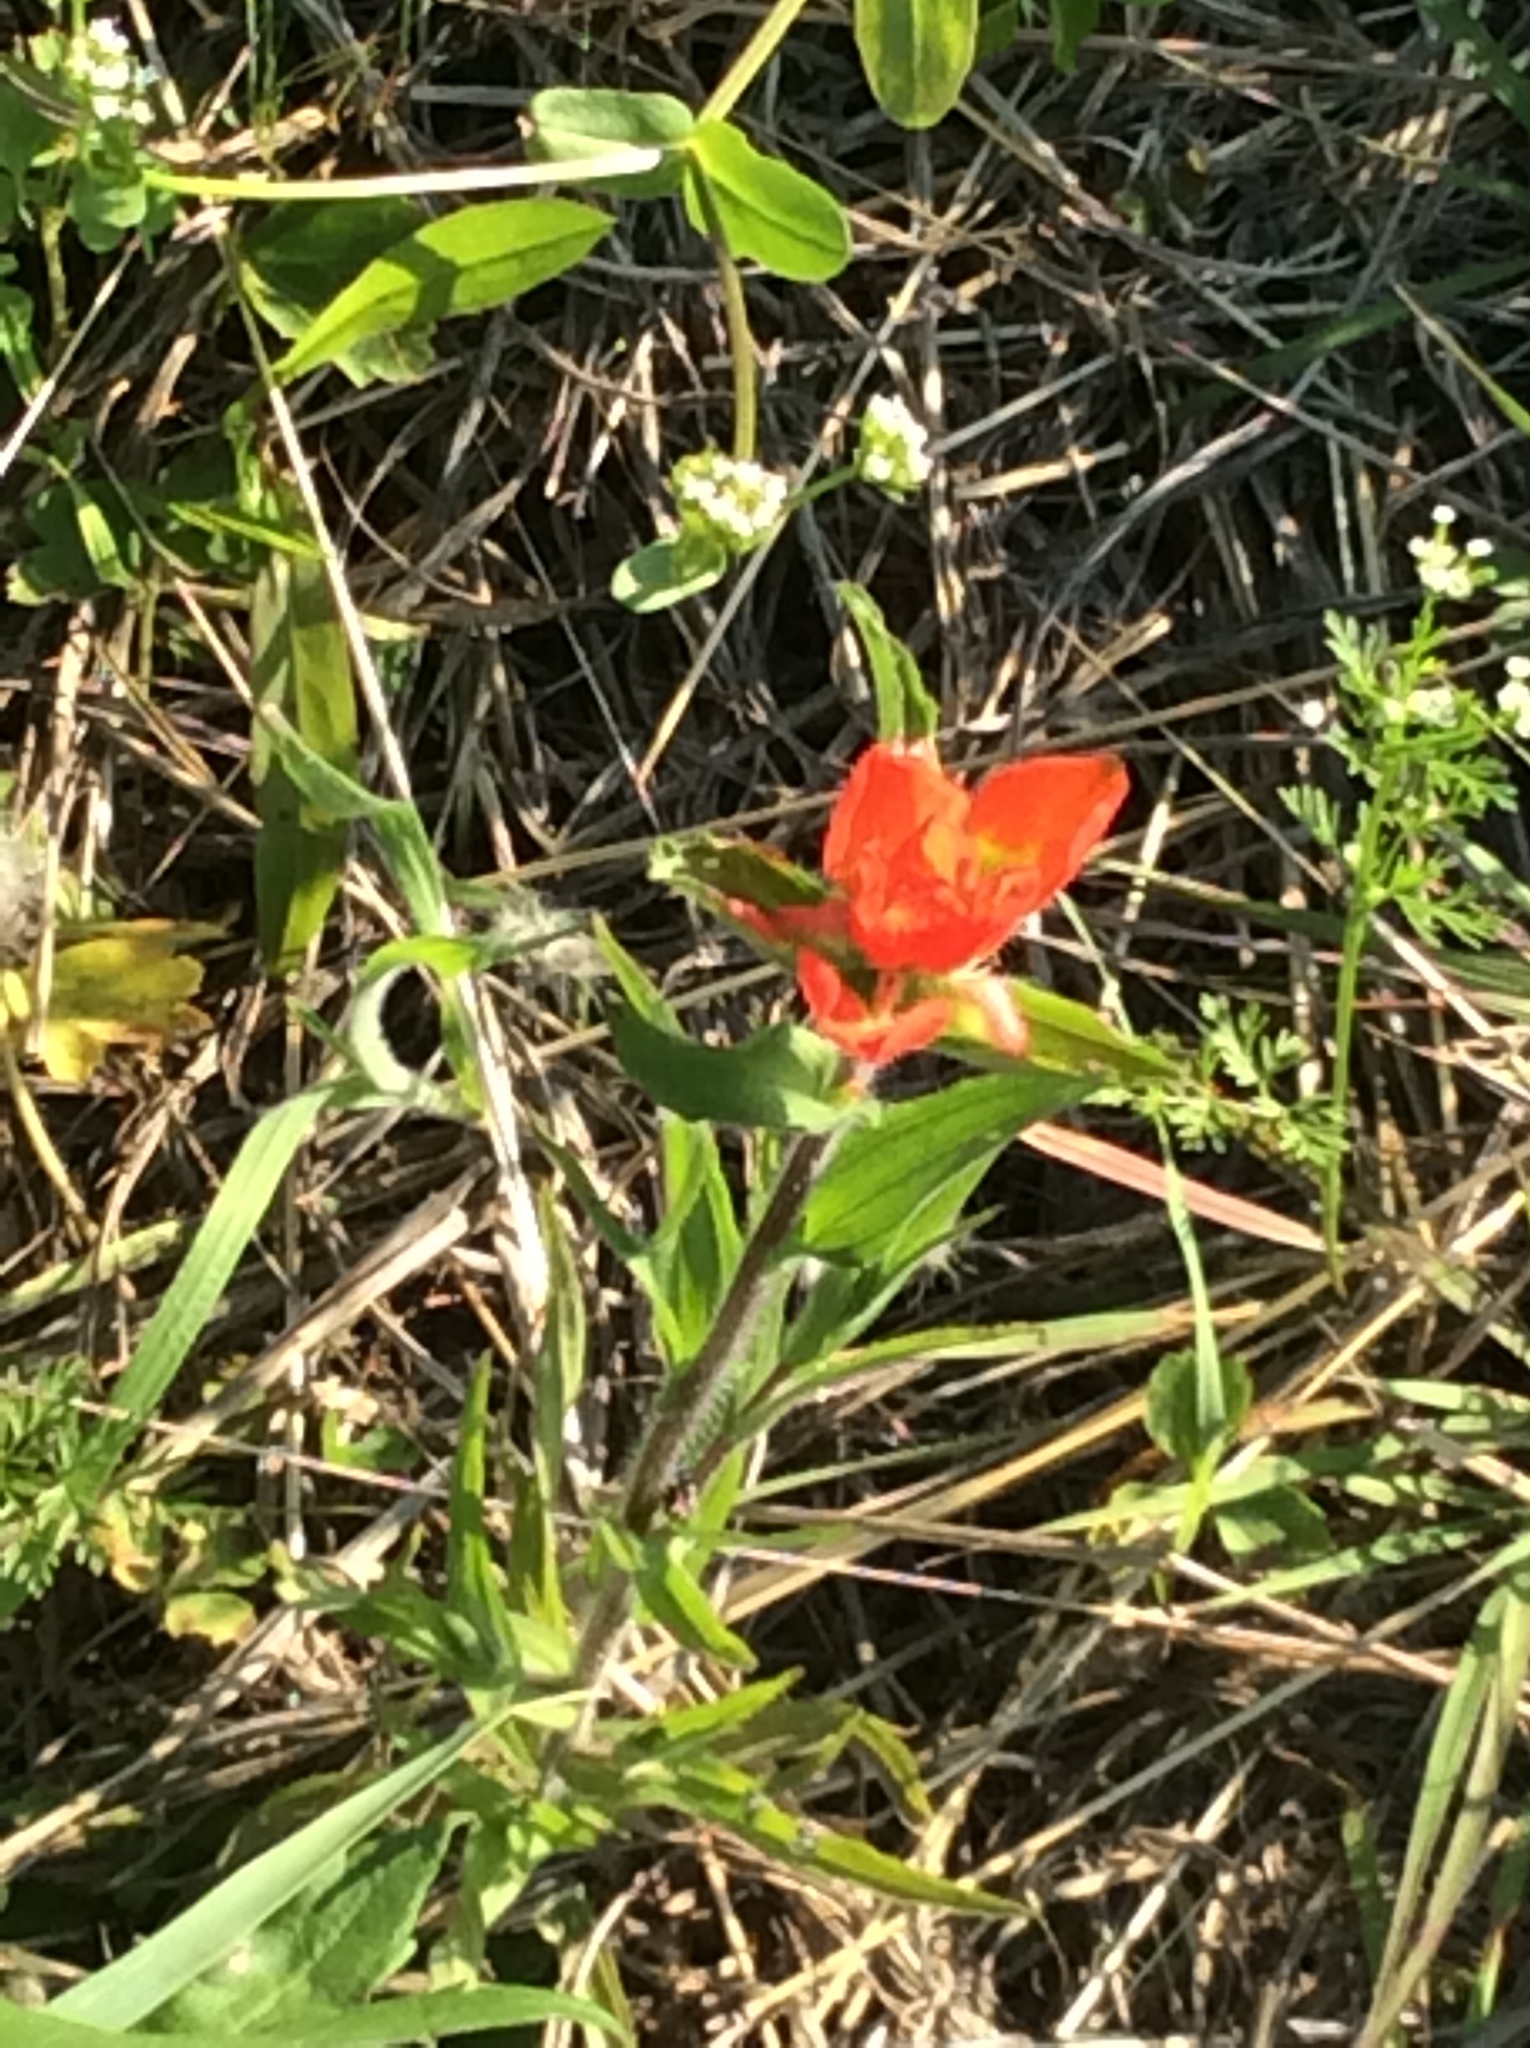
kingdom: Plantae
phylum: Tracheophyta
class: Magnoliopsida
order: Lamiales
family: Orobanchaceae
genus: Castilleja
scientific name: Castilleja indivisa
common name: Texas paintbrush
